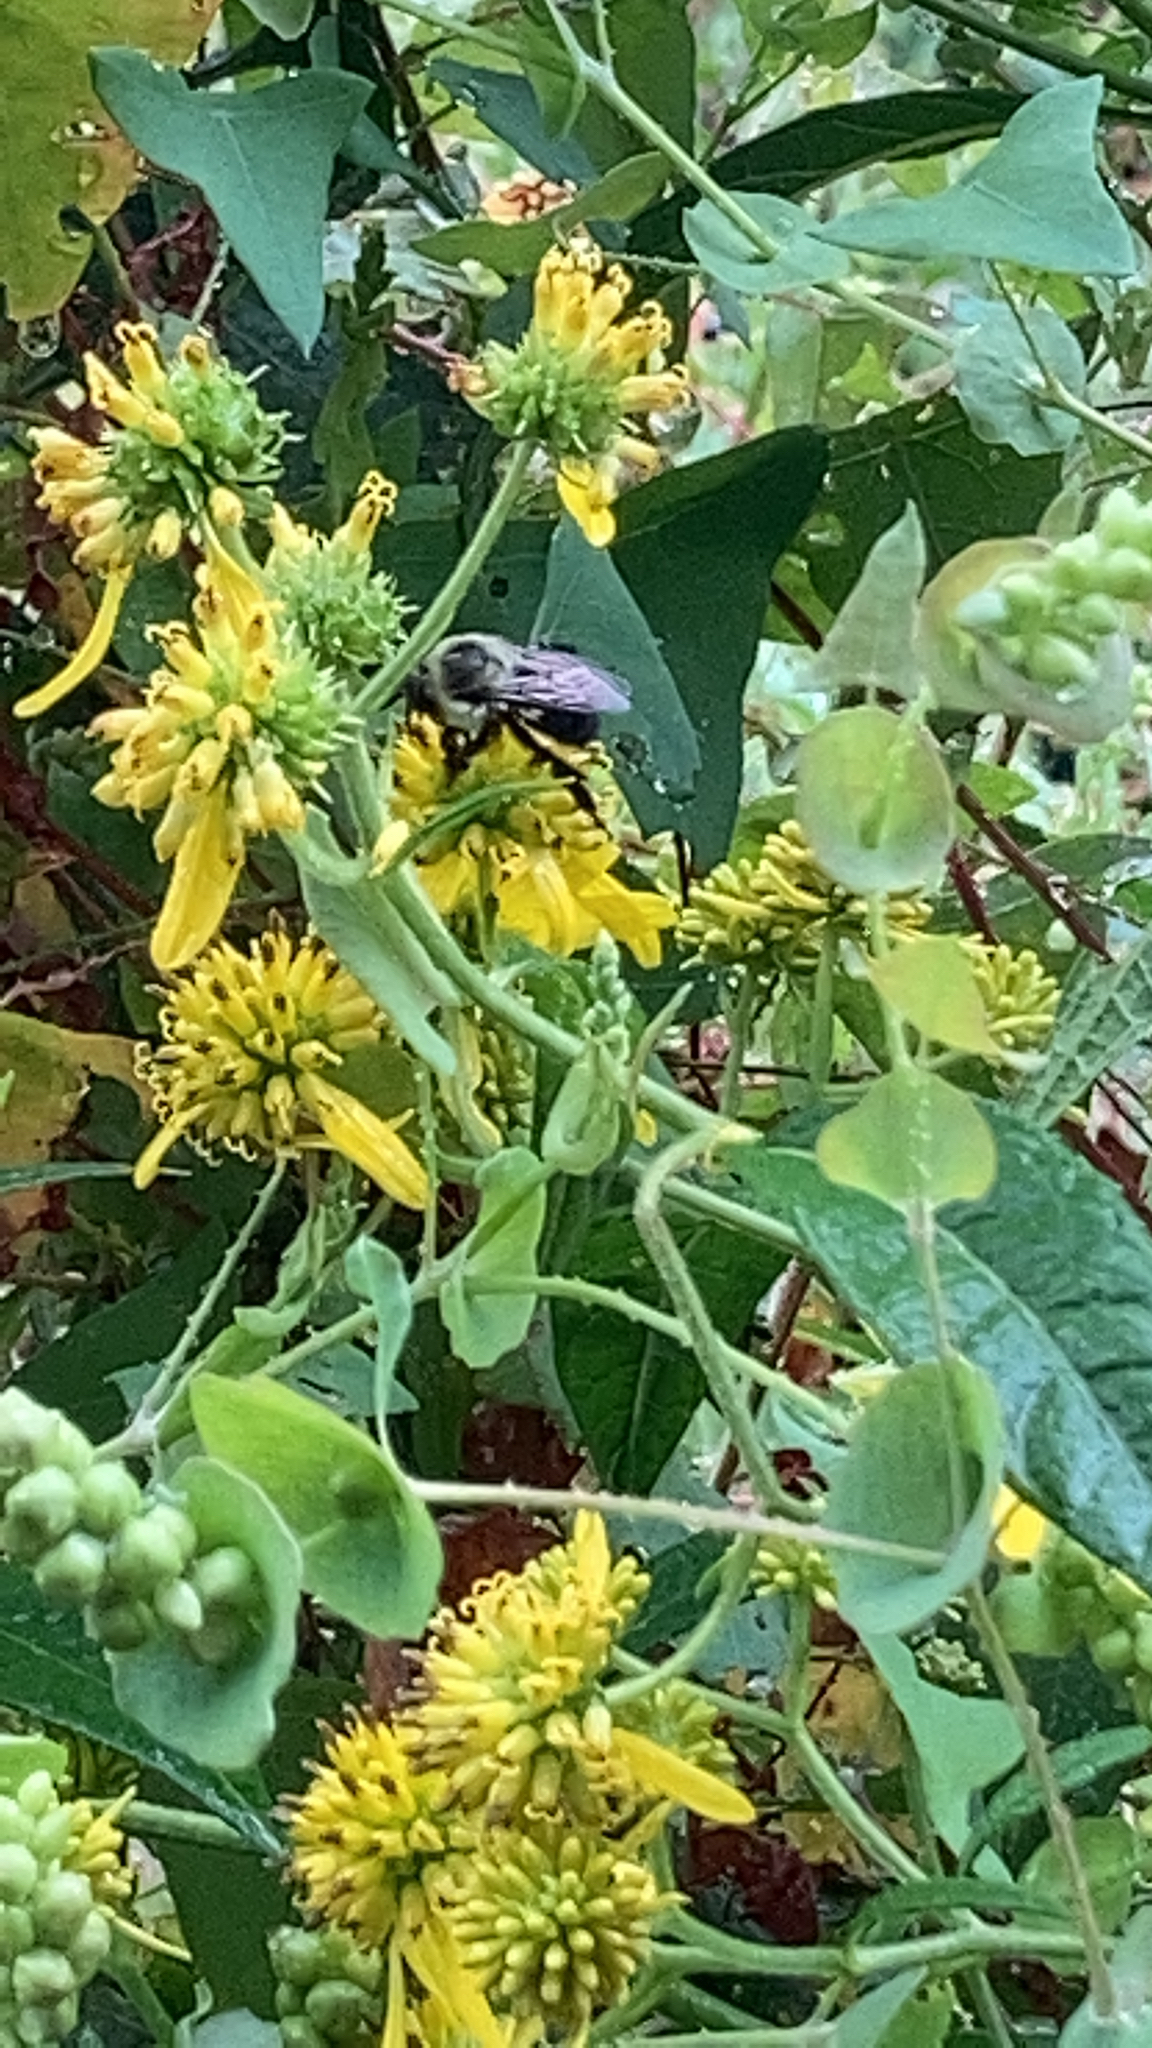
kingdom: Animalia
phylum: Arthropoda
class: Insecta
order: Hymenoptera
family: Apidae
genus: Bombus
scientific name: Bombus impatiens
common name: Common eastern bumble bee
